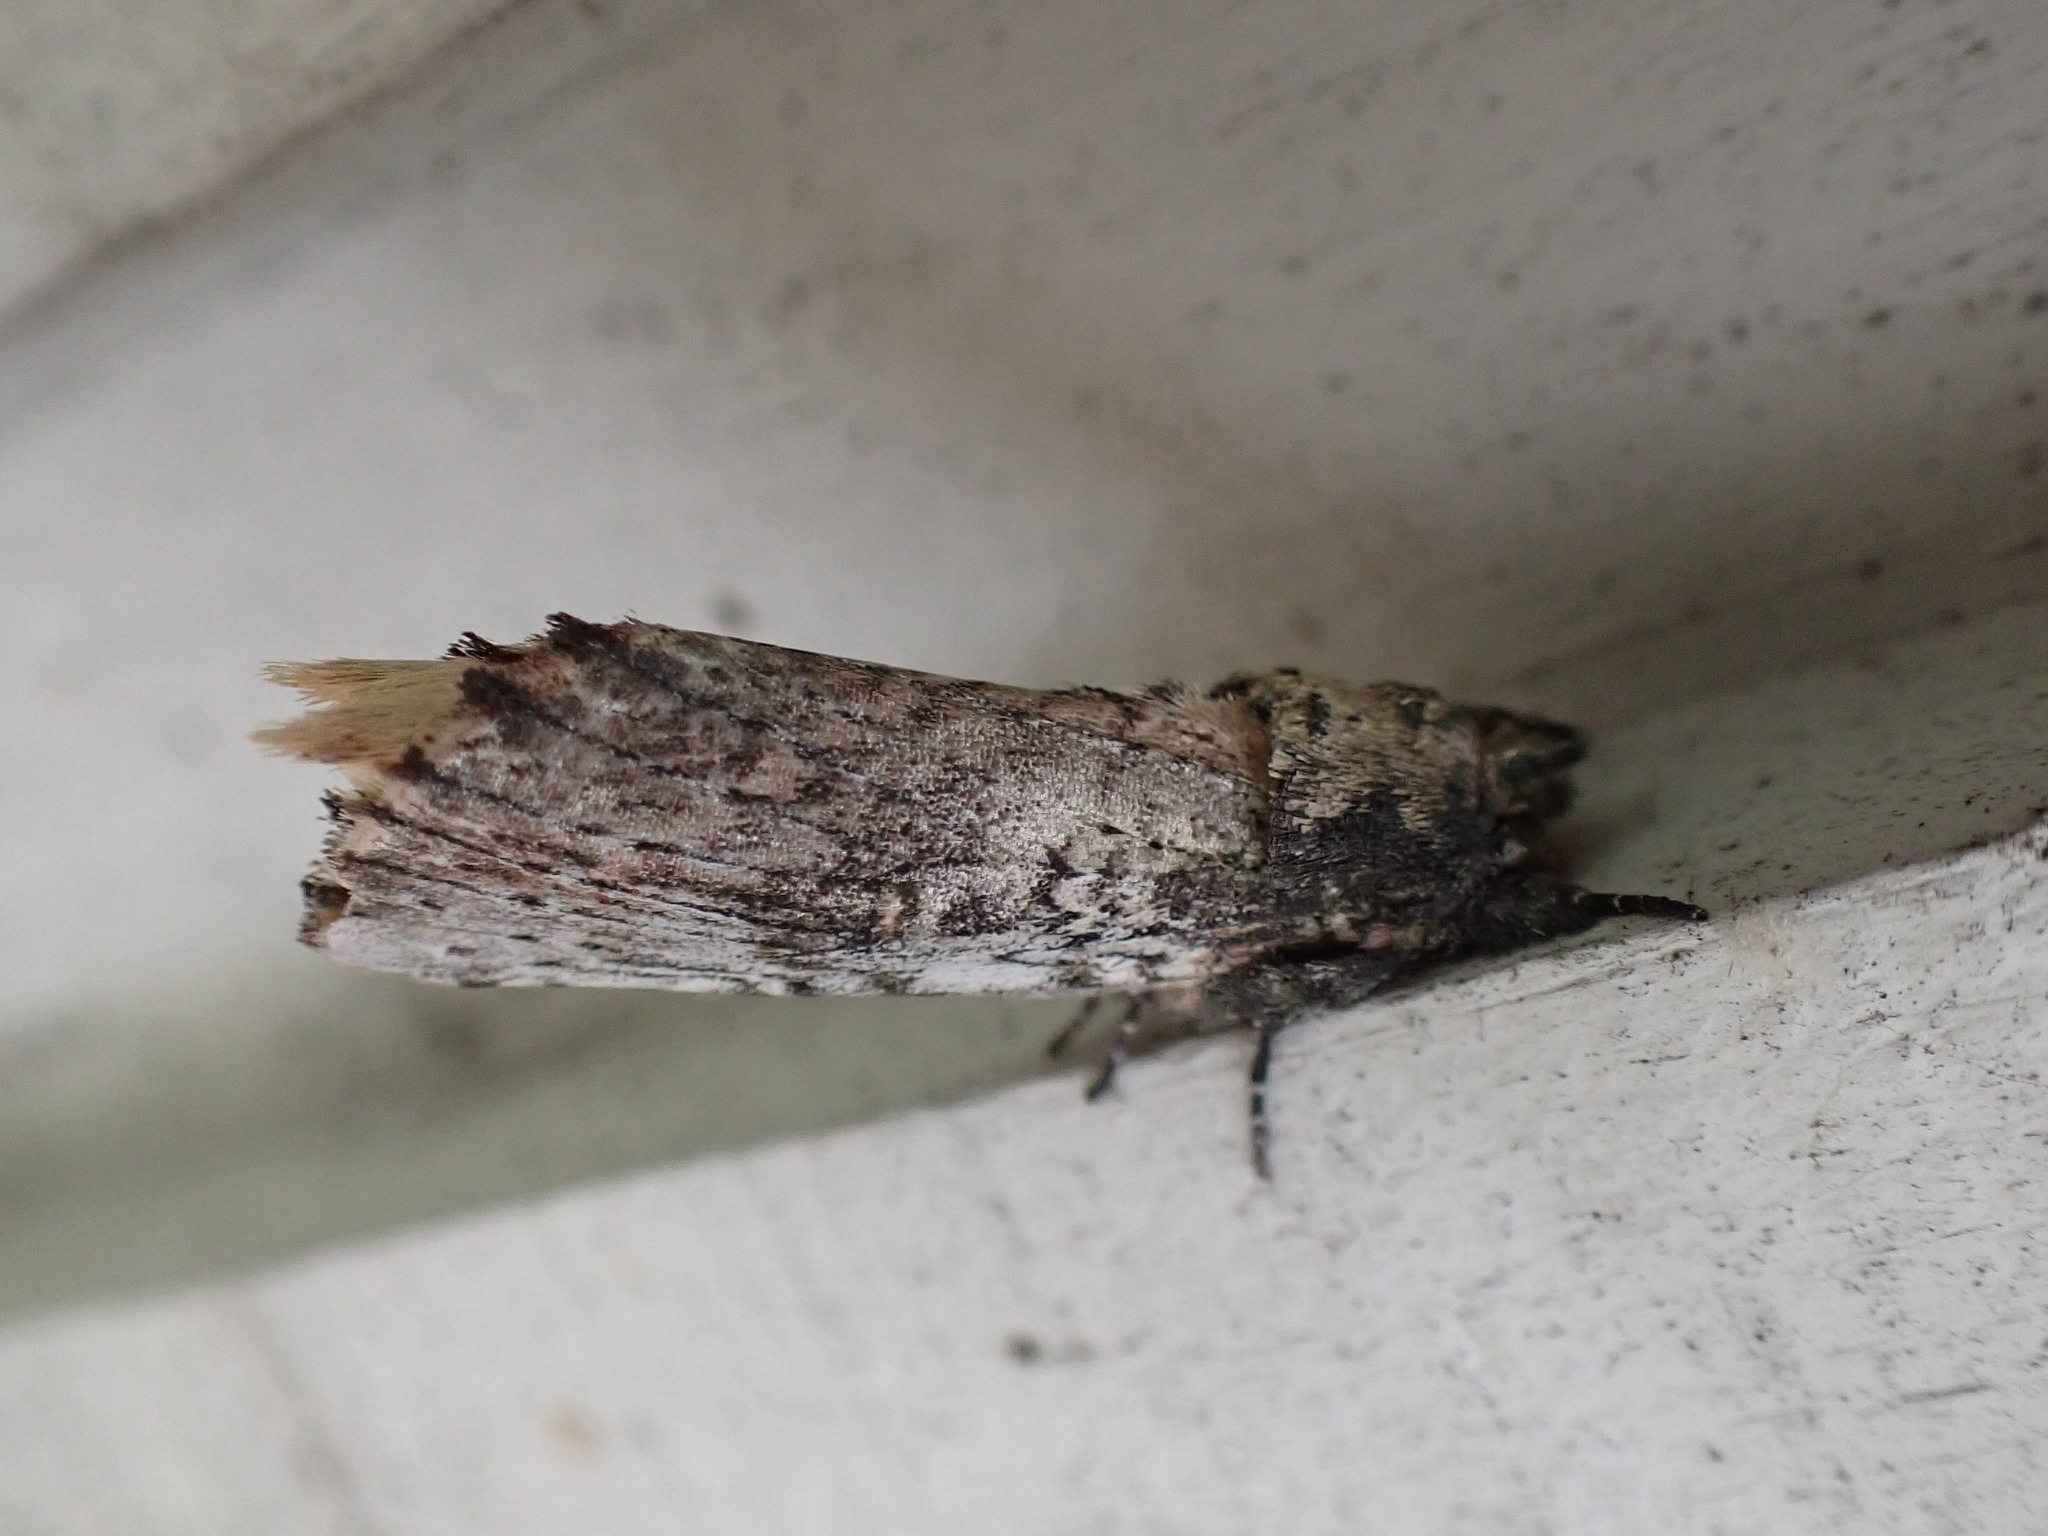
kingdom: Animalia
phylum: Arthropoda
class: Insecta
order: Lepidoptera
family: Notodontidae
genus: Schizura
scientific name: Schizura ipomaeae
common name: Morning-glory prominent
